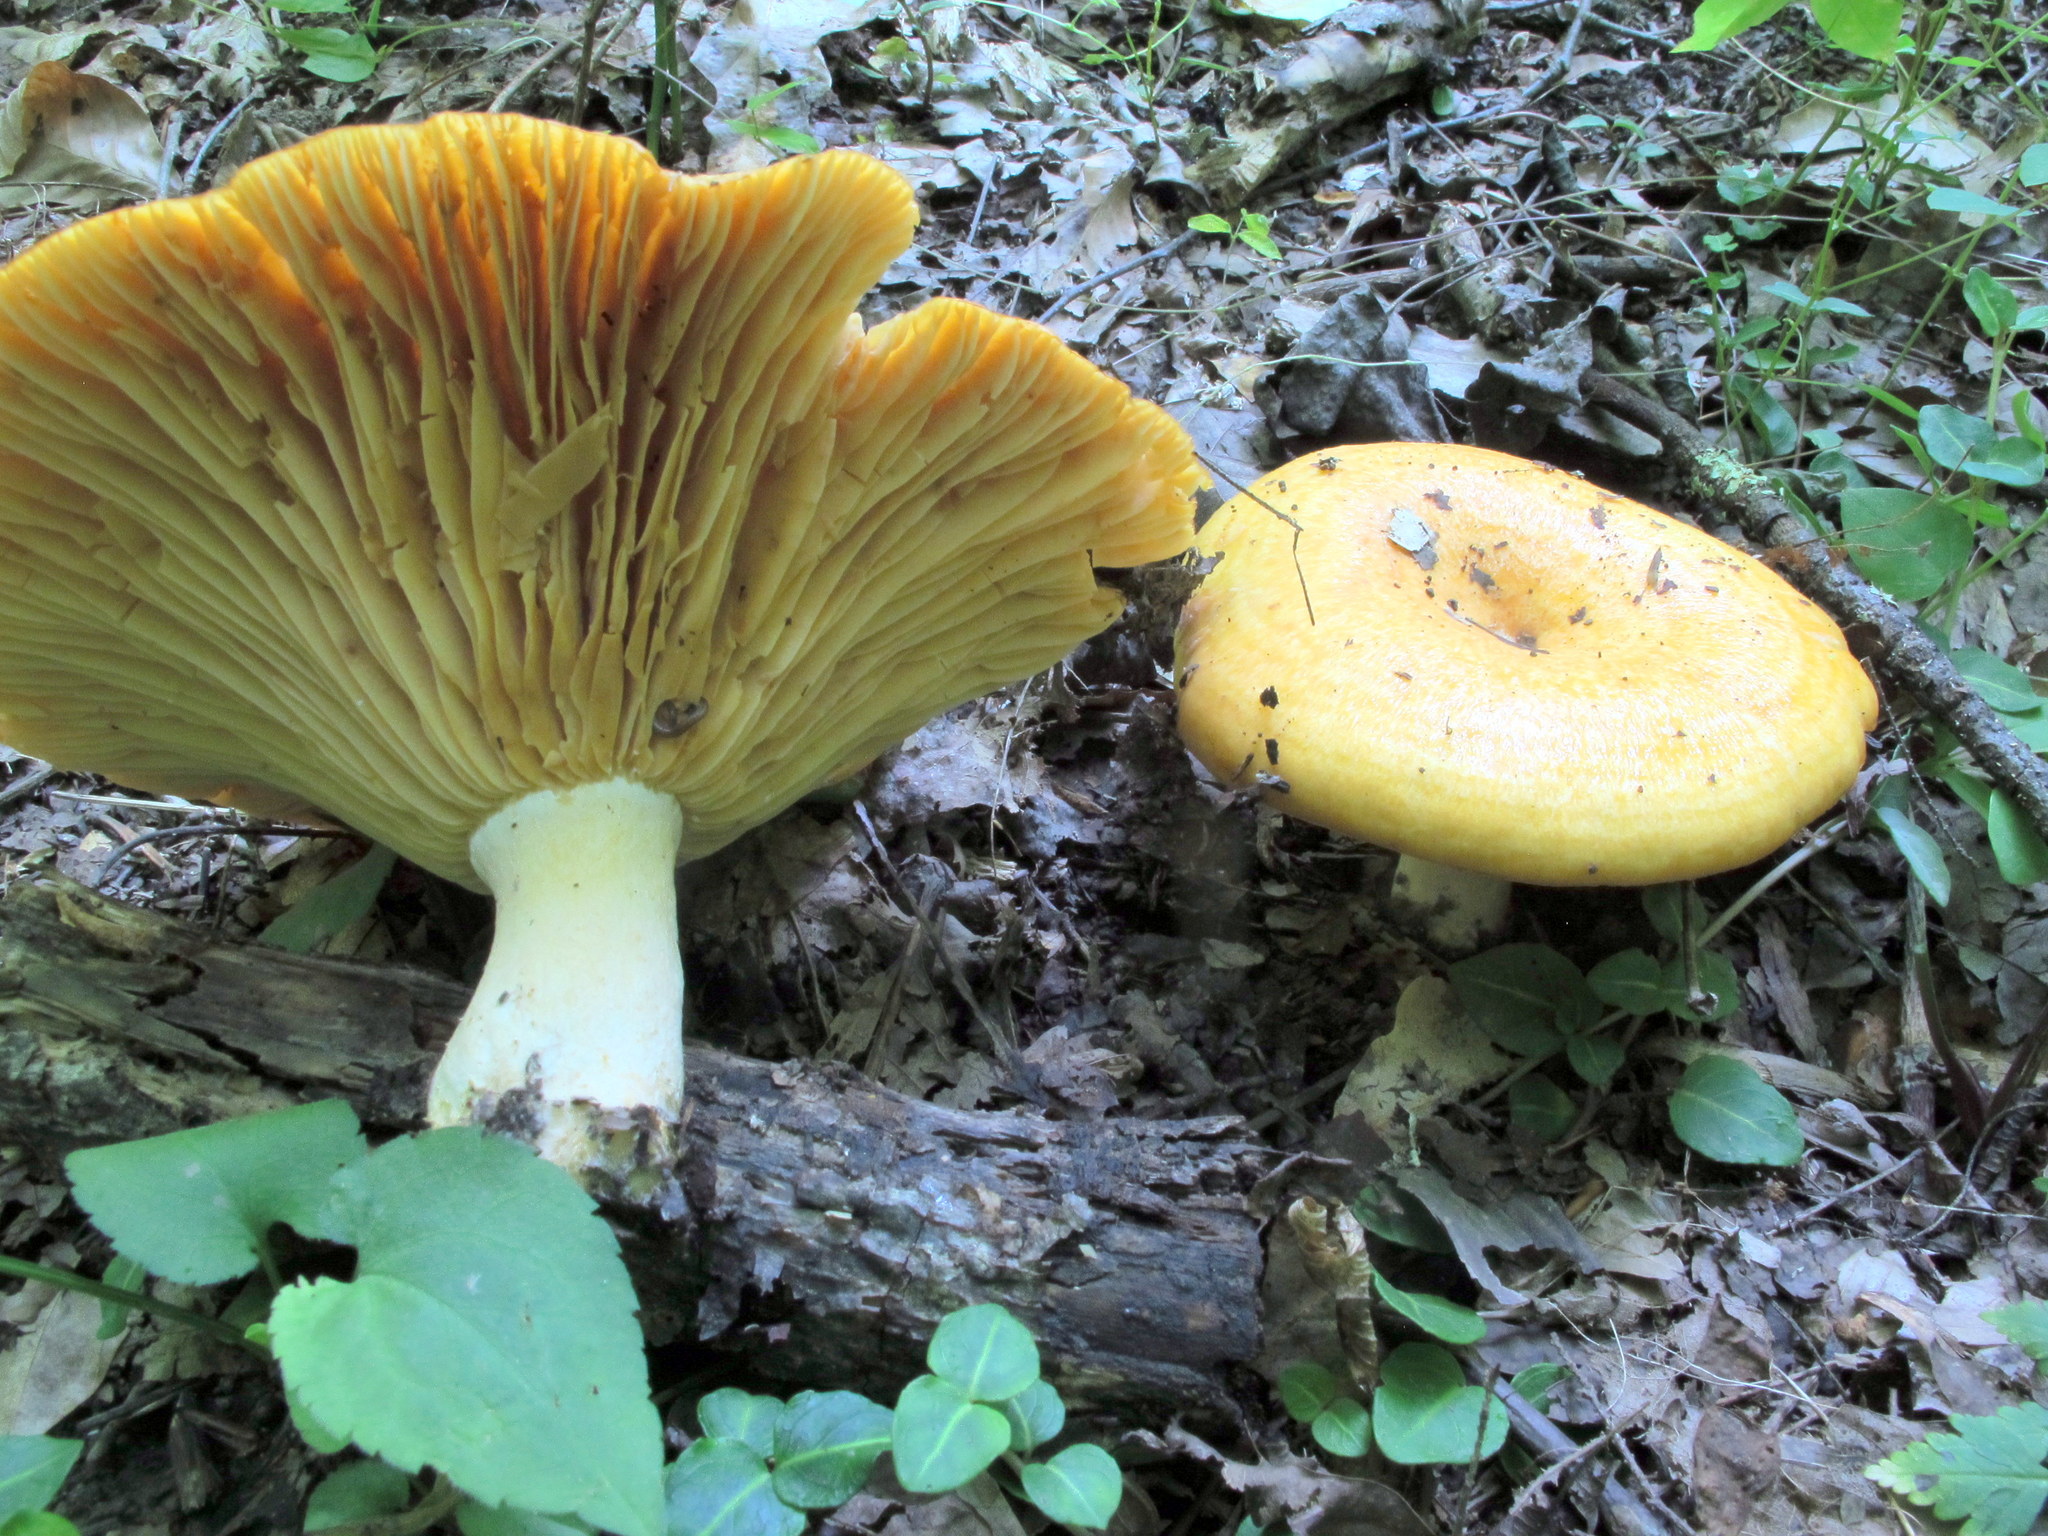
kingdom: Fungi
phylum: Basidiomycota
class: Agaricomycetes
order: Russulales
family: Russulaceae
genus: Lactarius
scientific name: Lactarius croceus
